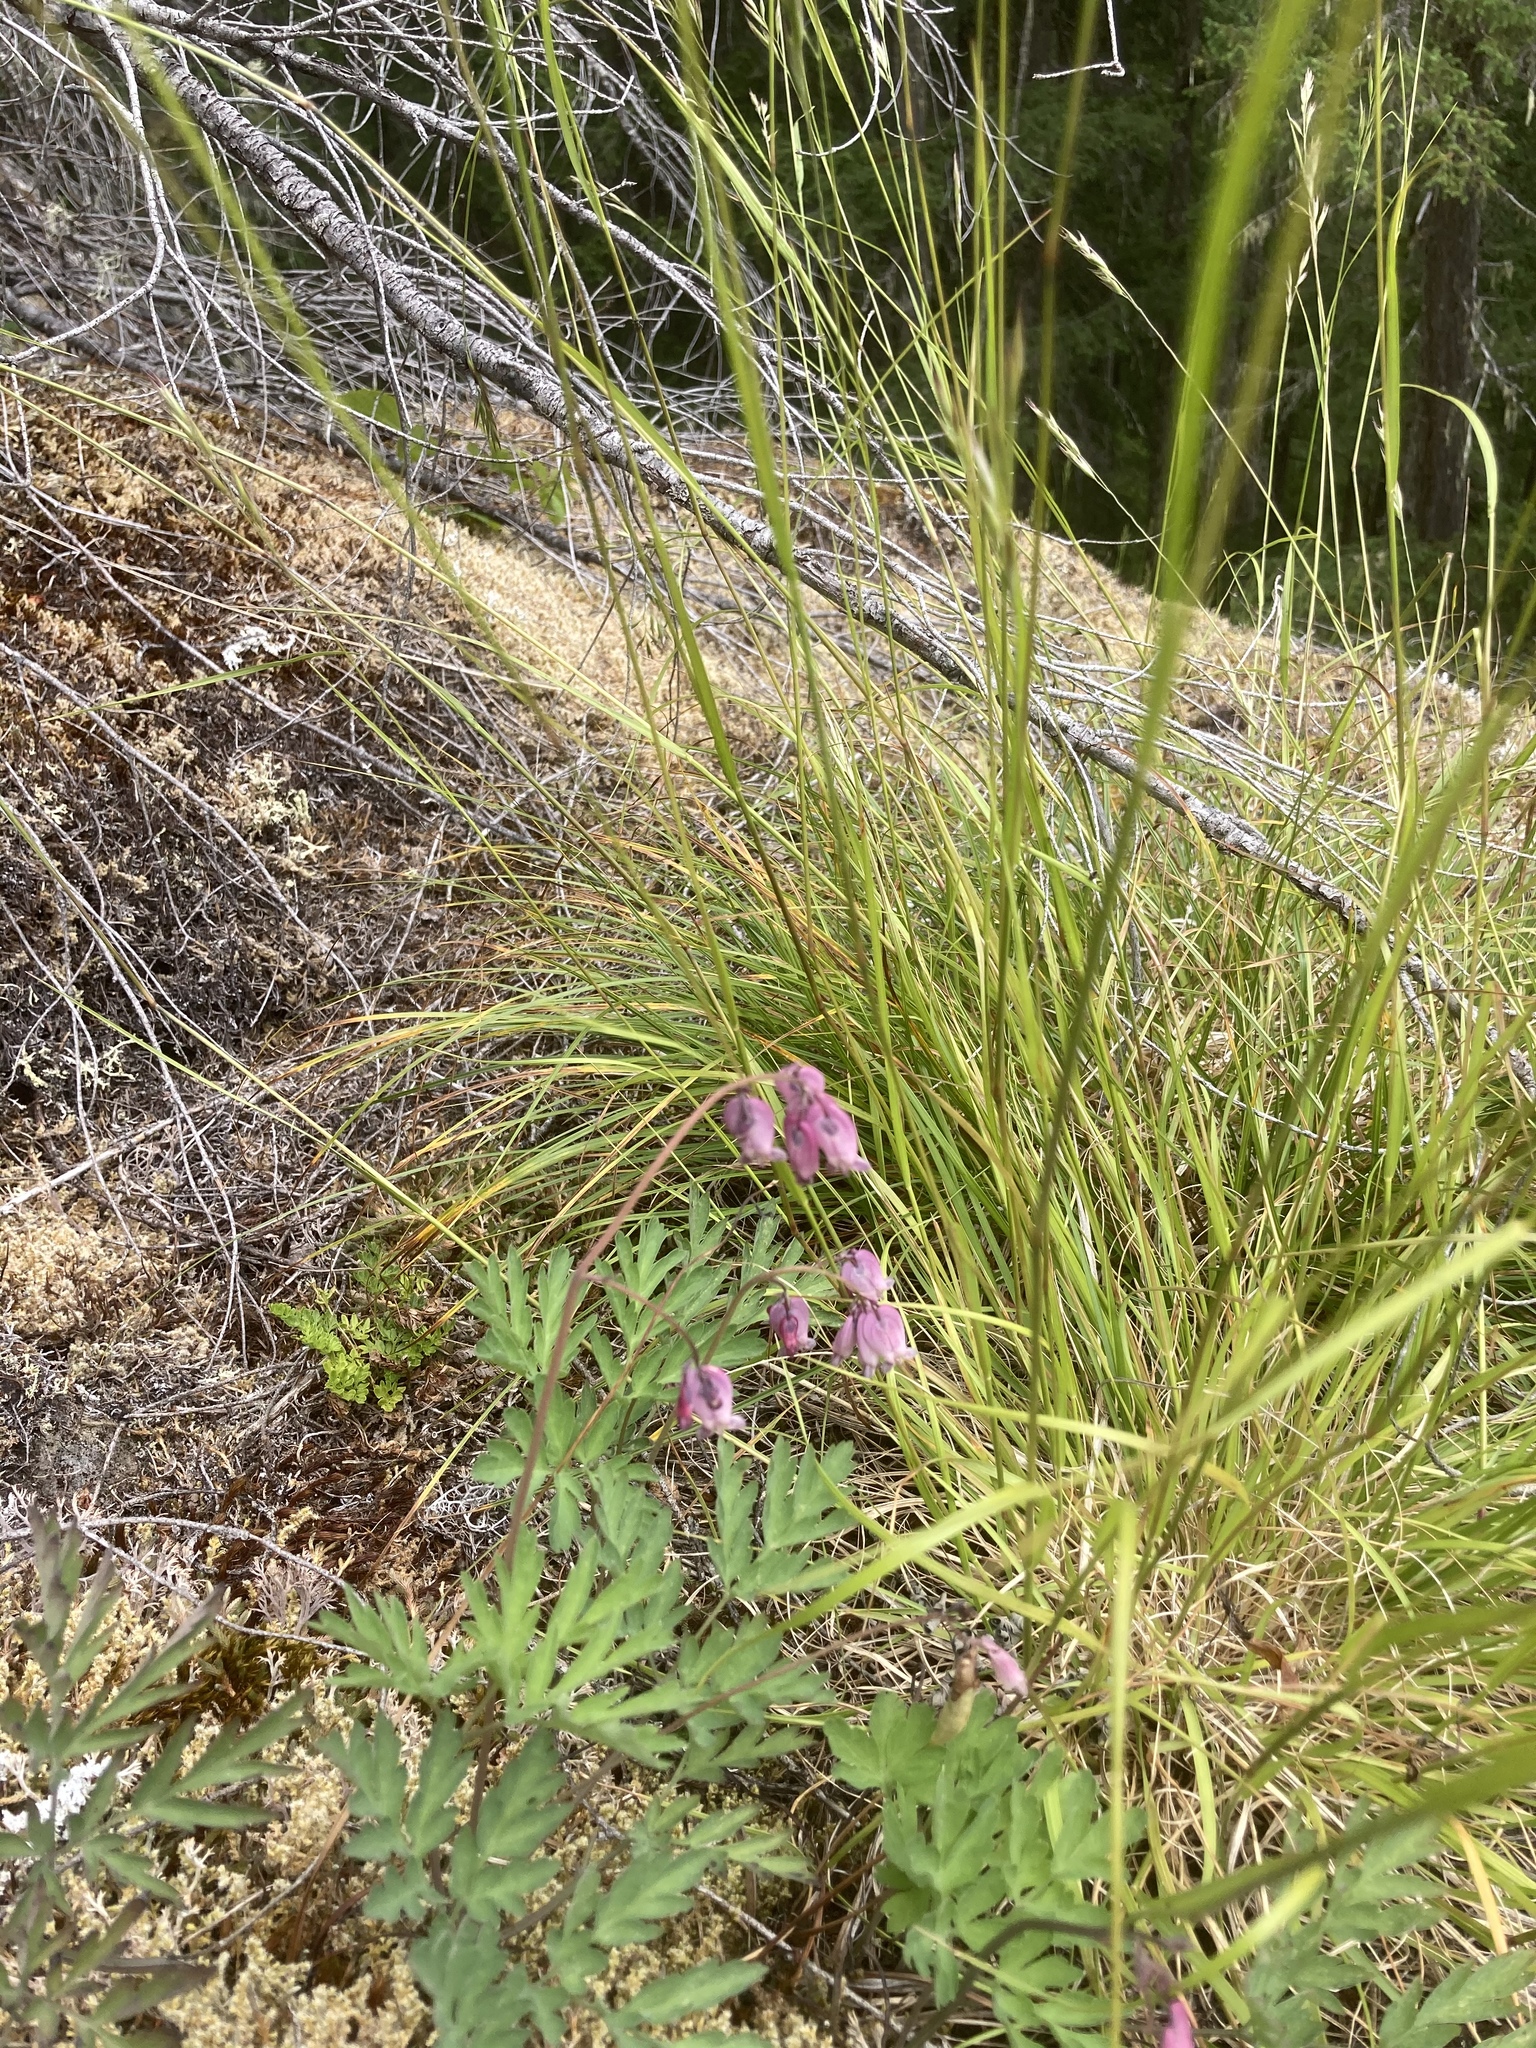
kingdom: Plantae
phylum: Tracheophyta
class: Magnoliopsida
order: Ranunculales
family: Papaveraceae
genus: Dicentra
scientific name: Dicentra formosa
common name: Bleeding-heart
